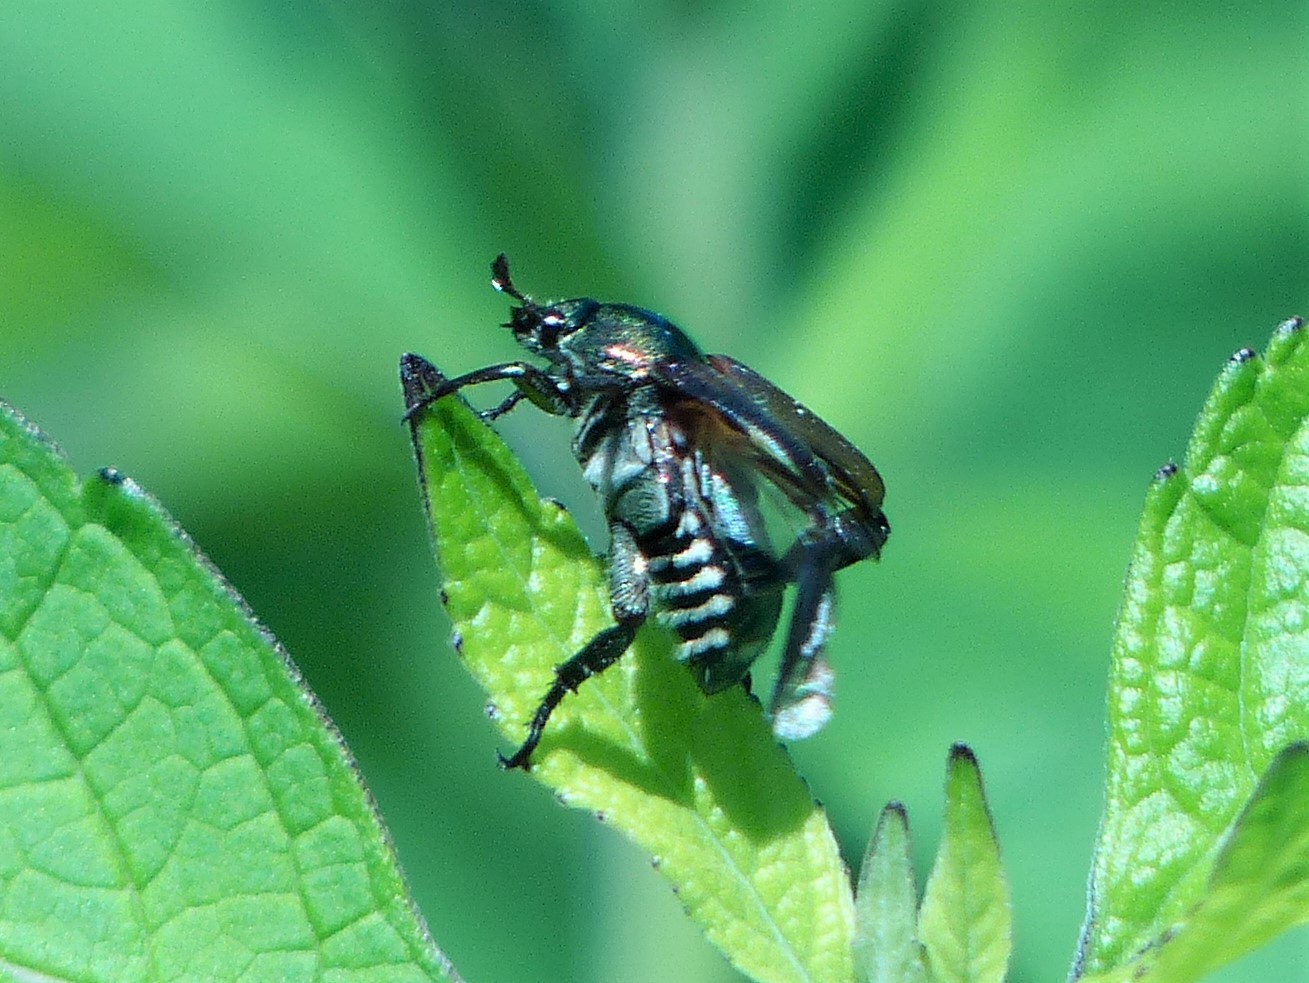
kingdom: Animalia
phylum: Arthropoda
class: Insecta
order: Coleoptera
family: Scarabaeidae
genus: Popillia
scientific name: Popillia japonica
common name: Japanese beetle
